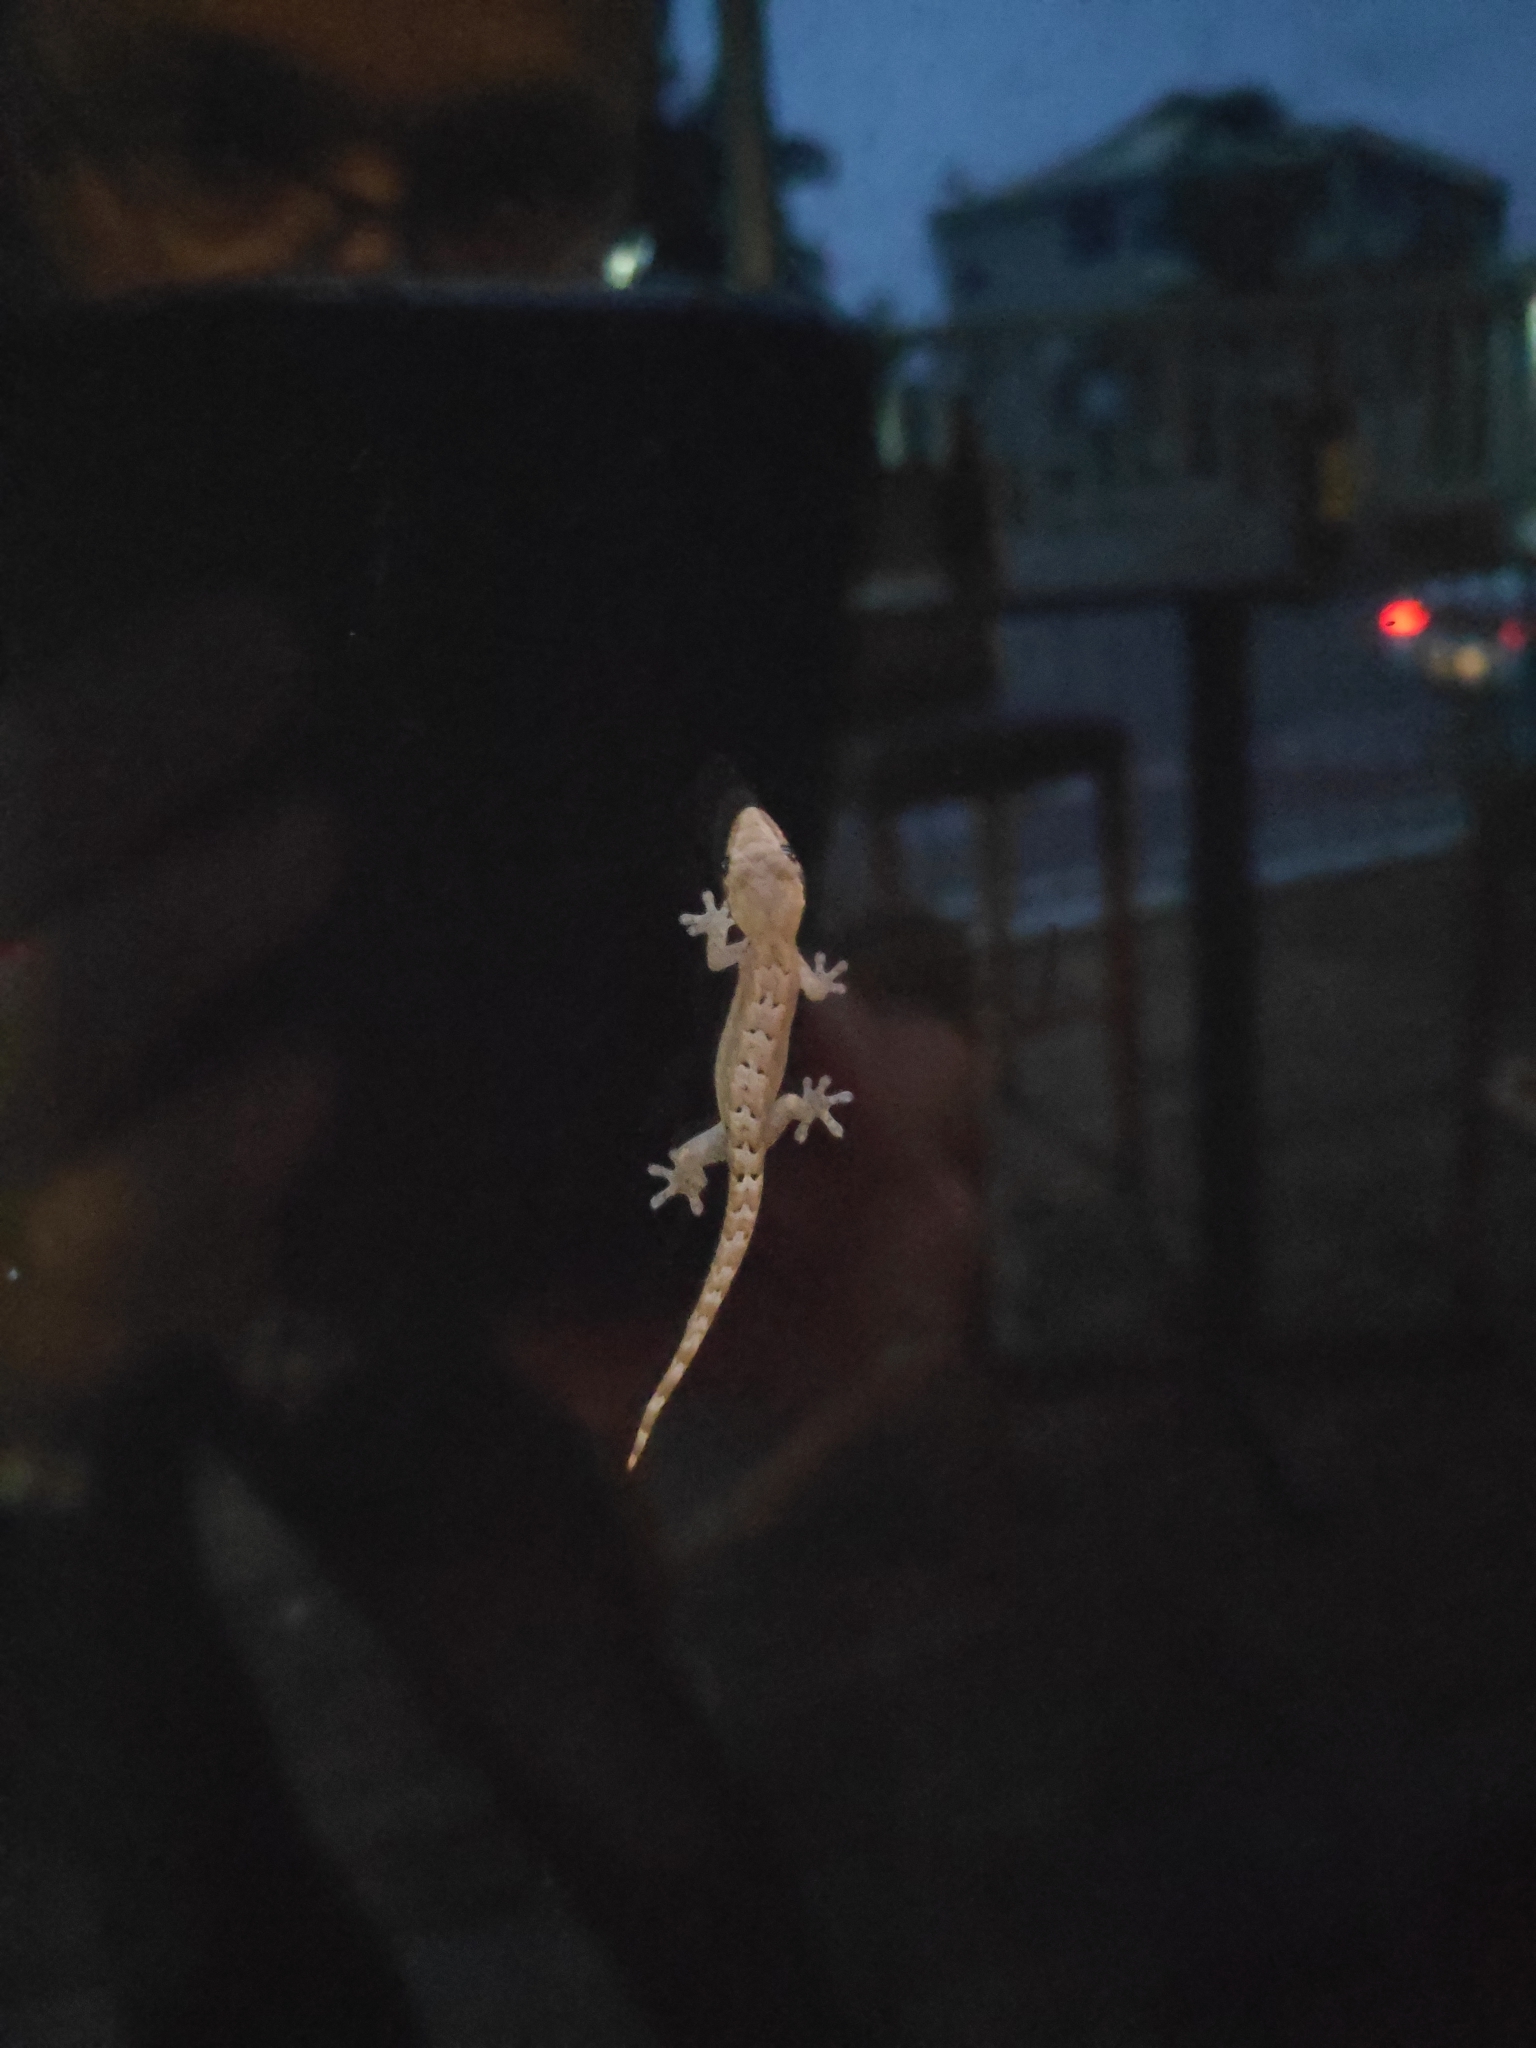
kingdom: Animalia
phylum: Chordata
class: Squamata
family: Gekkonidae
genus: Lepidodactylus
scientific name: Lepidodactylus lugubris
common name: Mourning gecko
